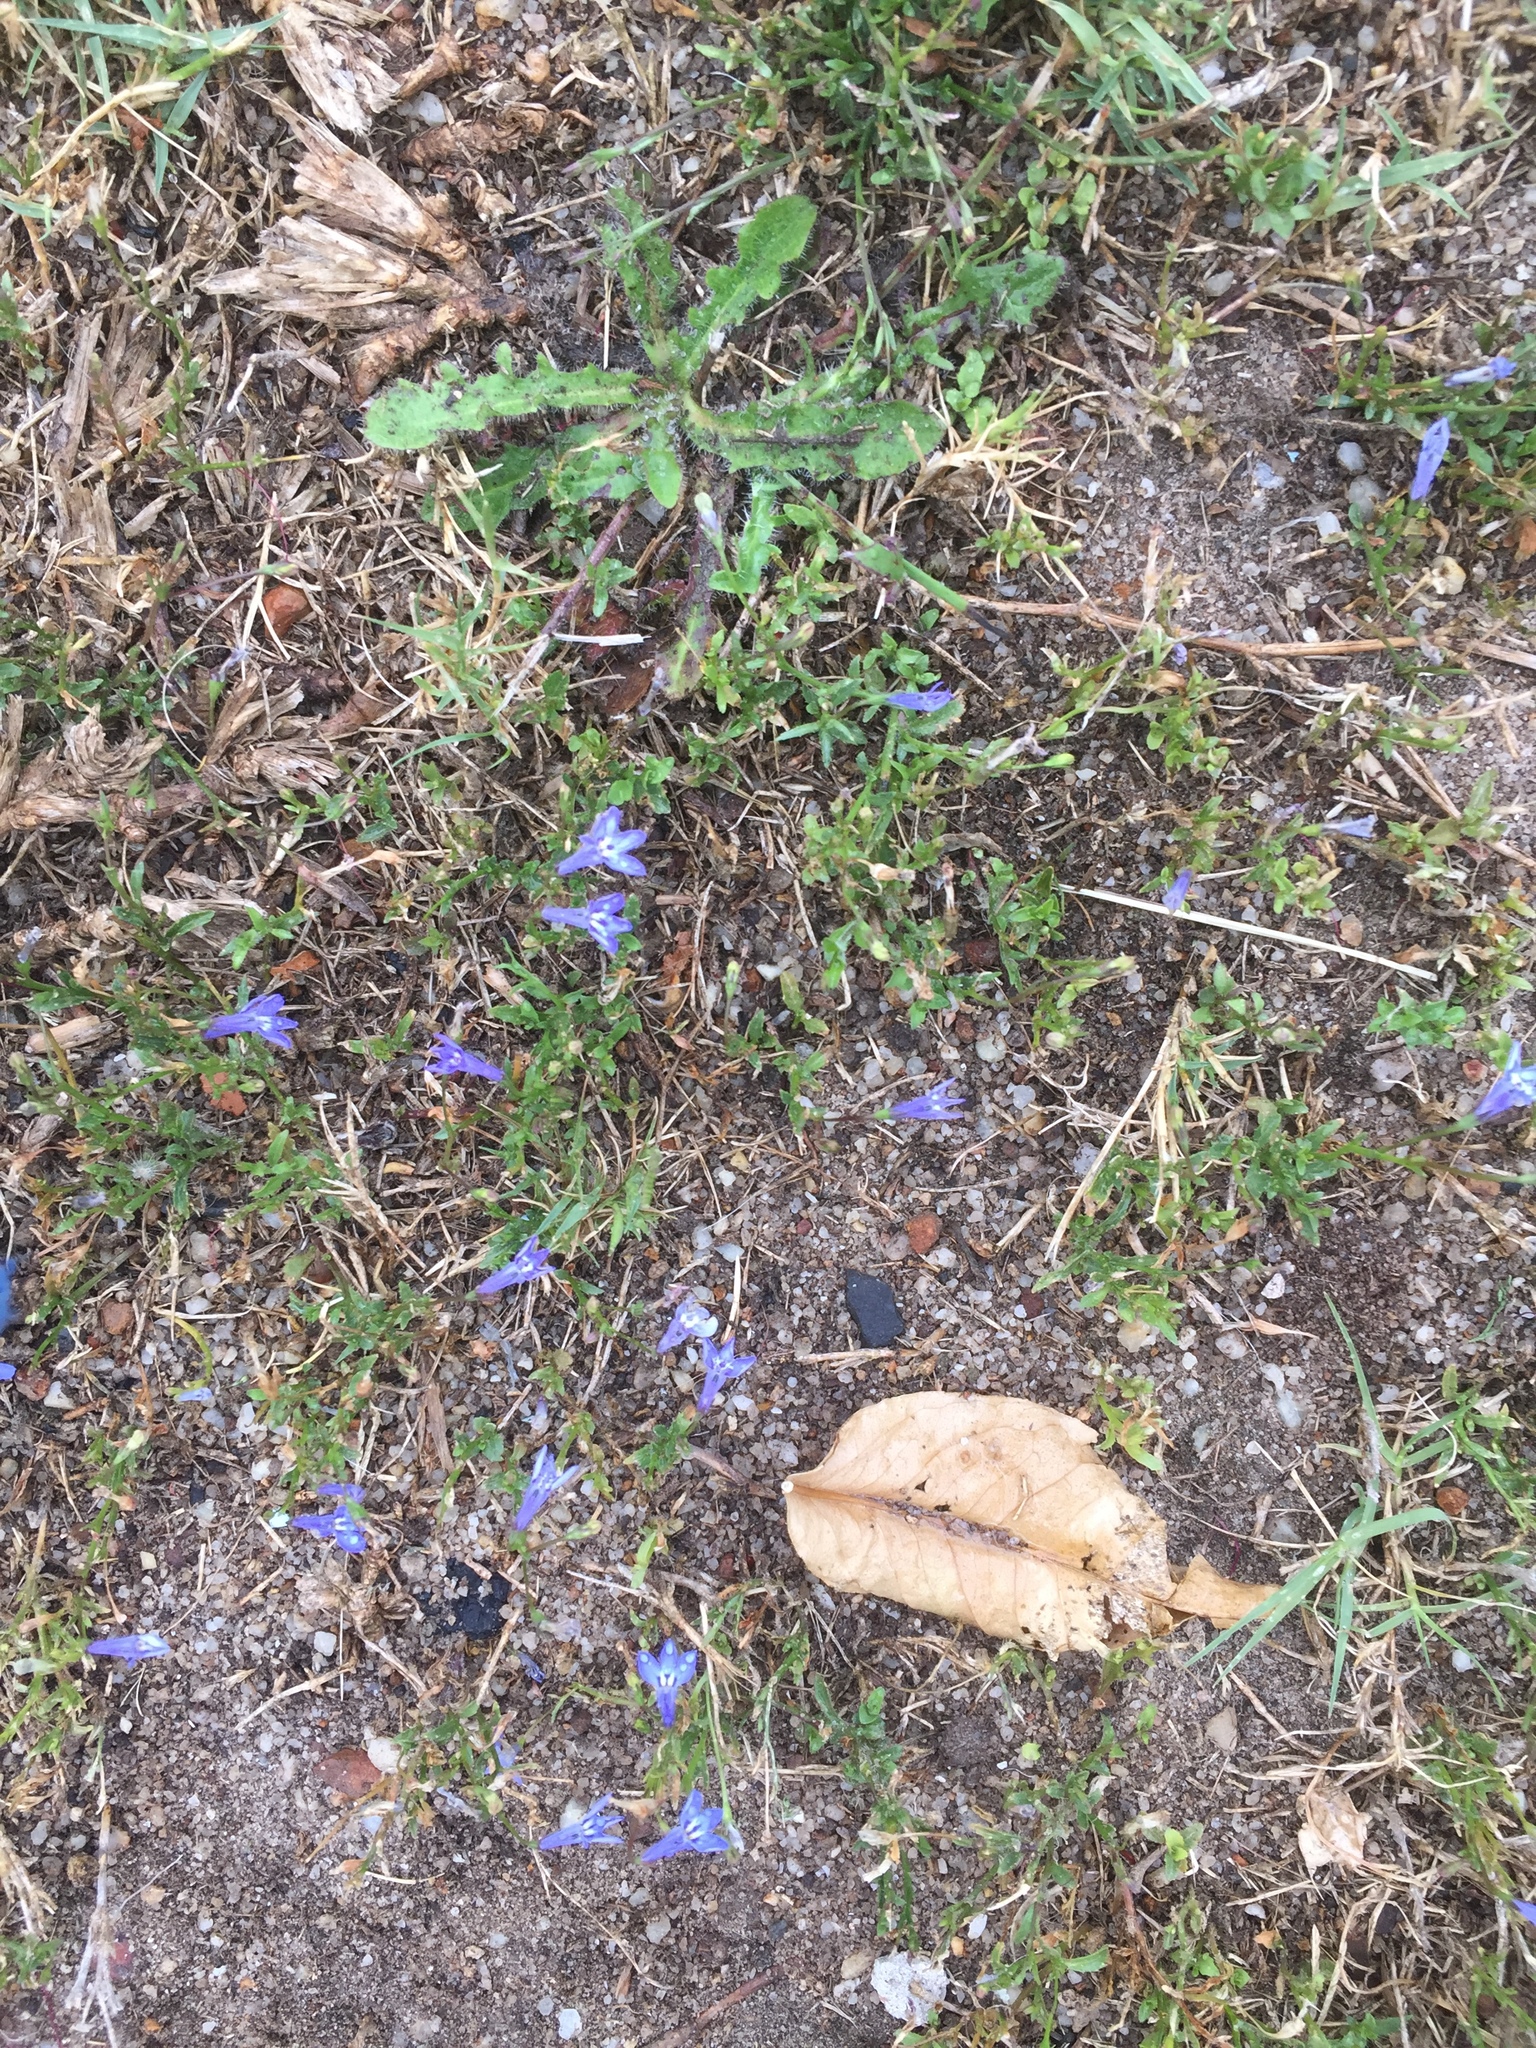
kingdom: Plantae
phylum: Tracheophyta
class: Magnoliopsida
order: Asterales
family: Campanulaceae
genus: Lobelia
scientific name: Lobelia erinus
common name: Edging lobelia
